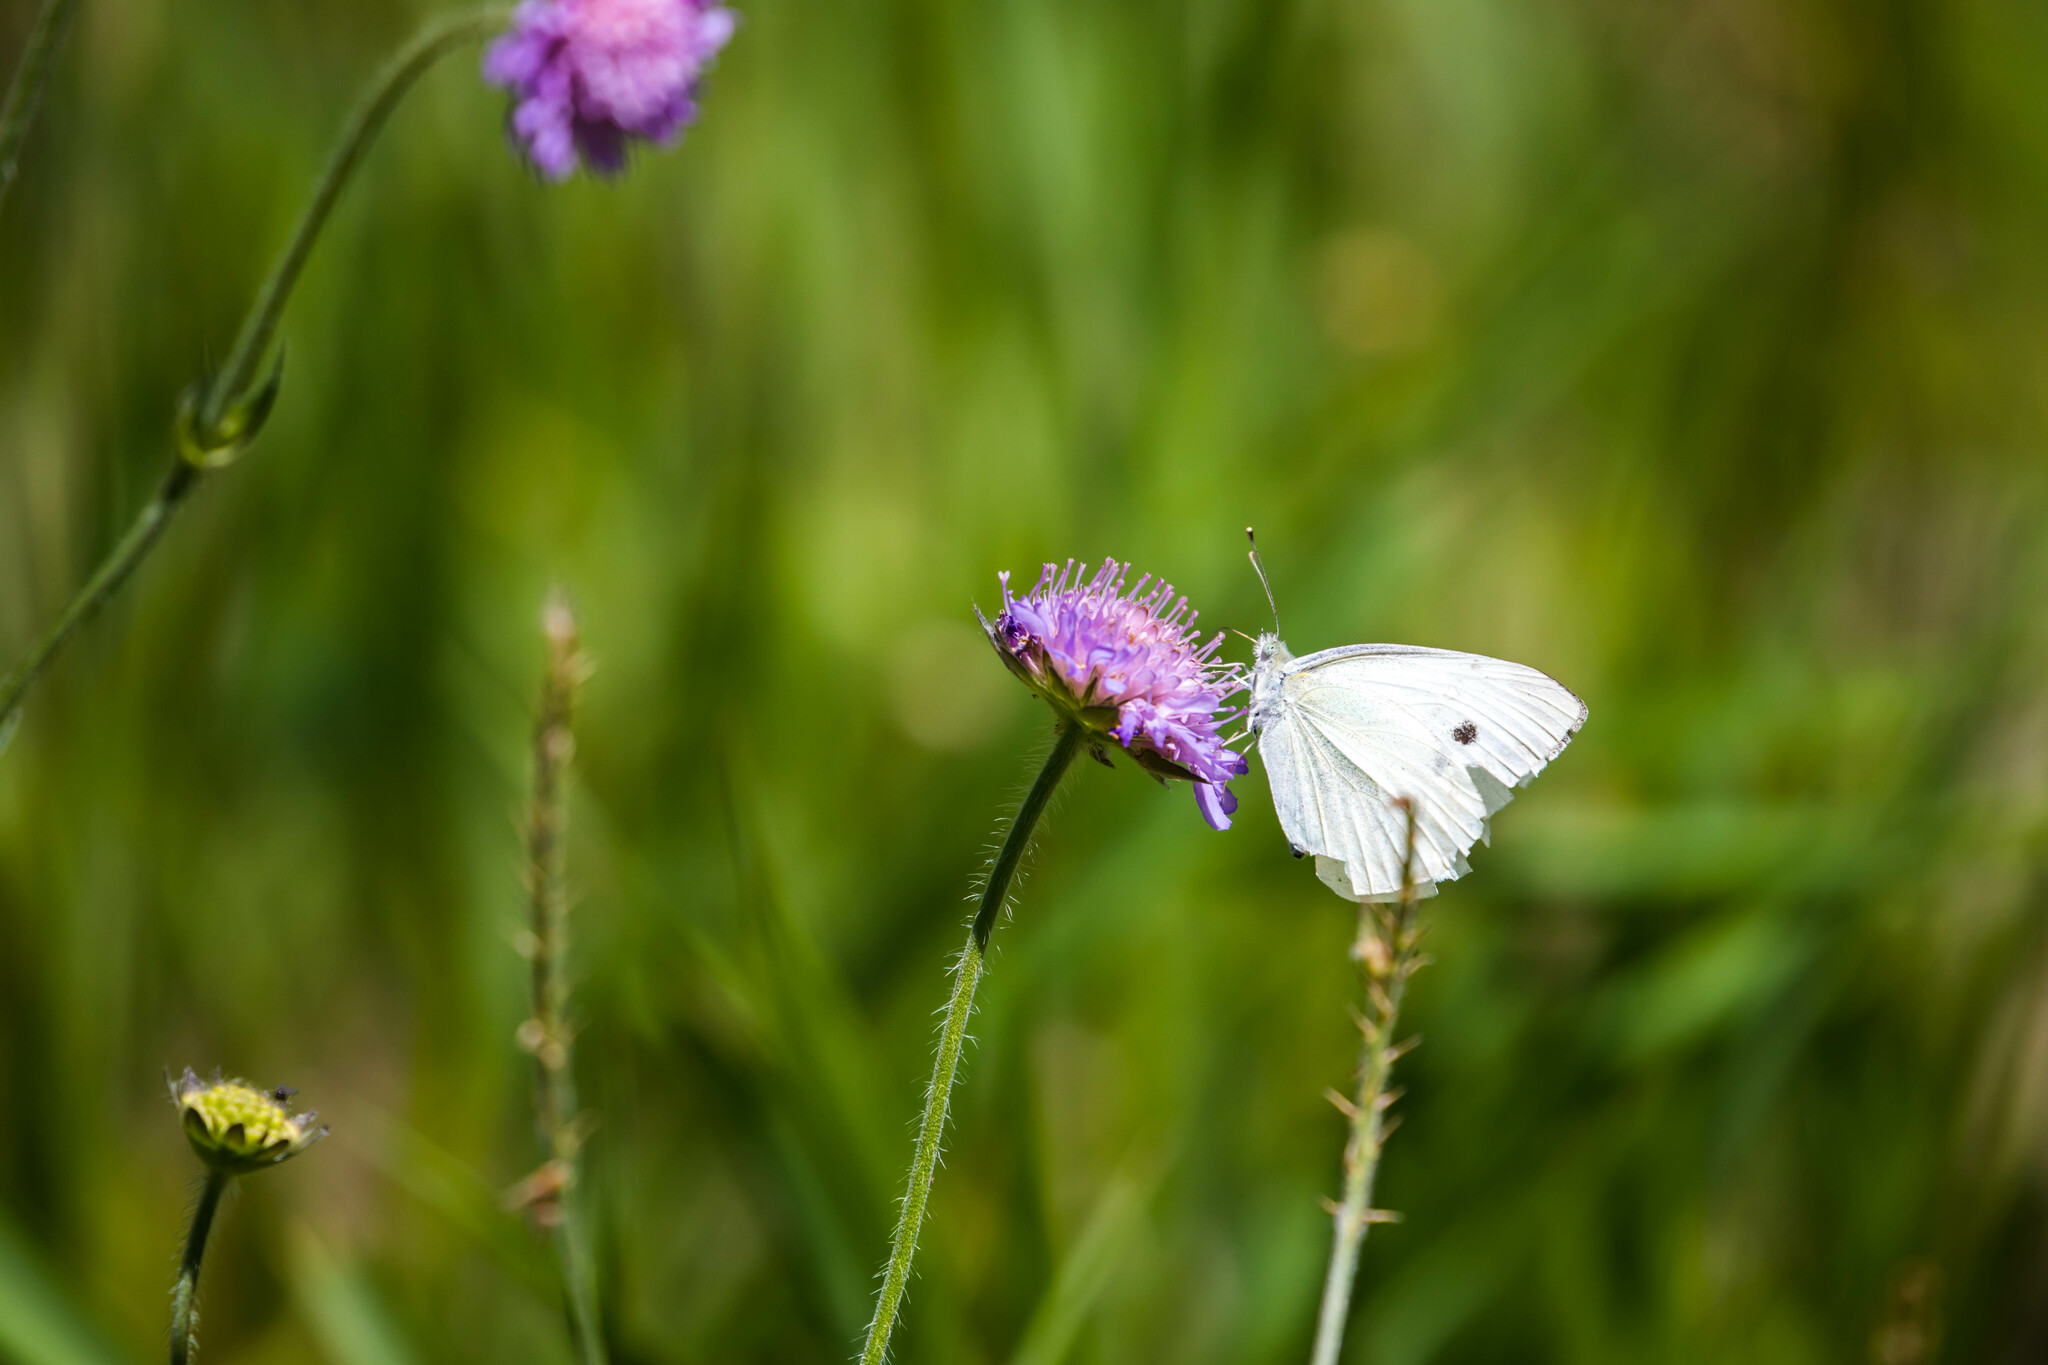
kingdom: Animalia
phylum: Arthropoda
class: Insecta
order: Lepidoptera
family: Pieridae
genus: Pieris
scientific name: Pieris rapae
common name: Small white
